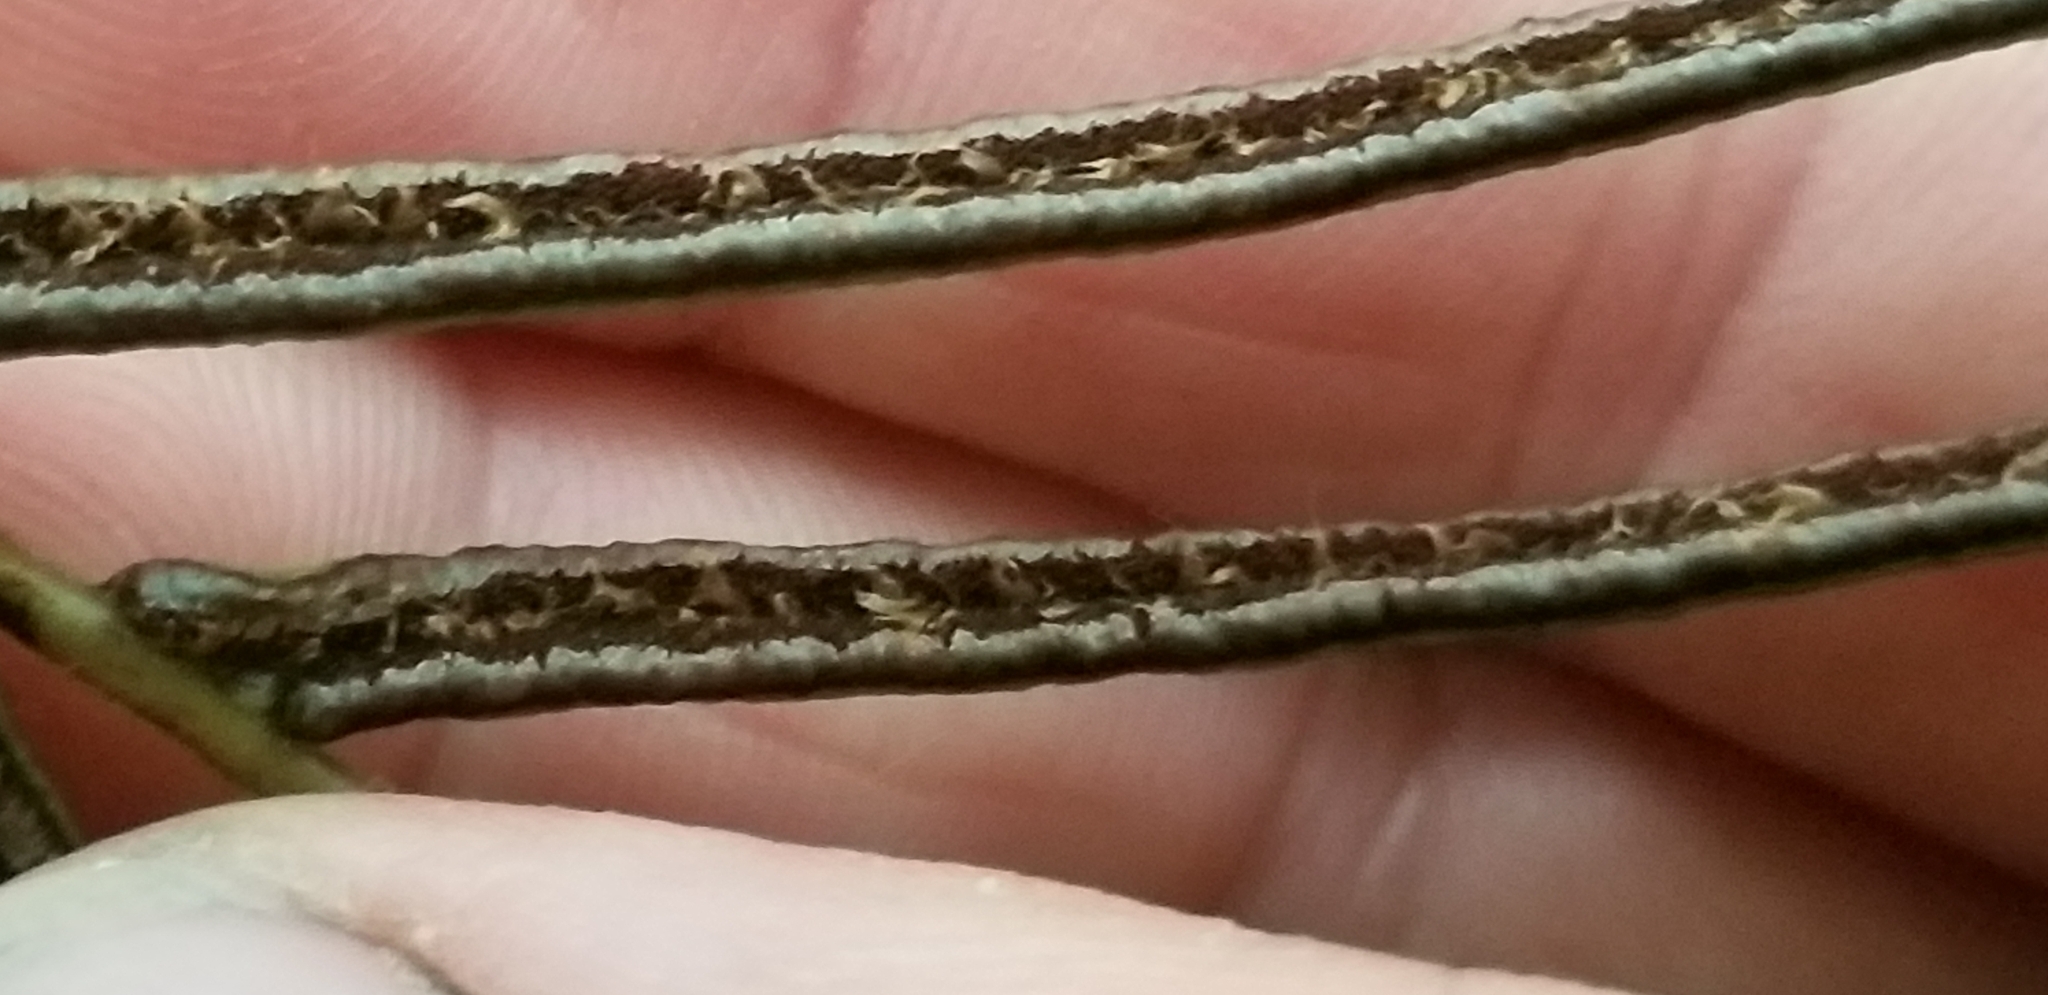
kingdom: Plantae
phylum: Tracheophyta
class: Polypodiopsida
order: Polypodiales
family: Blechnaceae
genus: Parablechnum
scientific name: Parablechnum procerum
